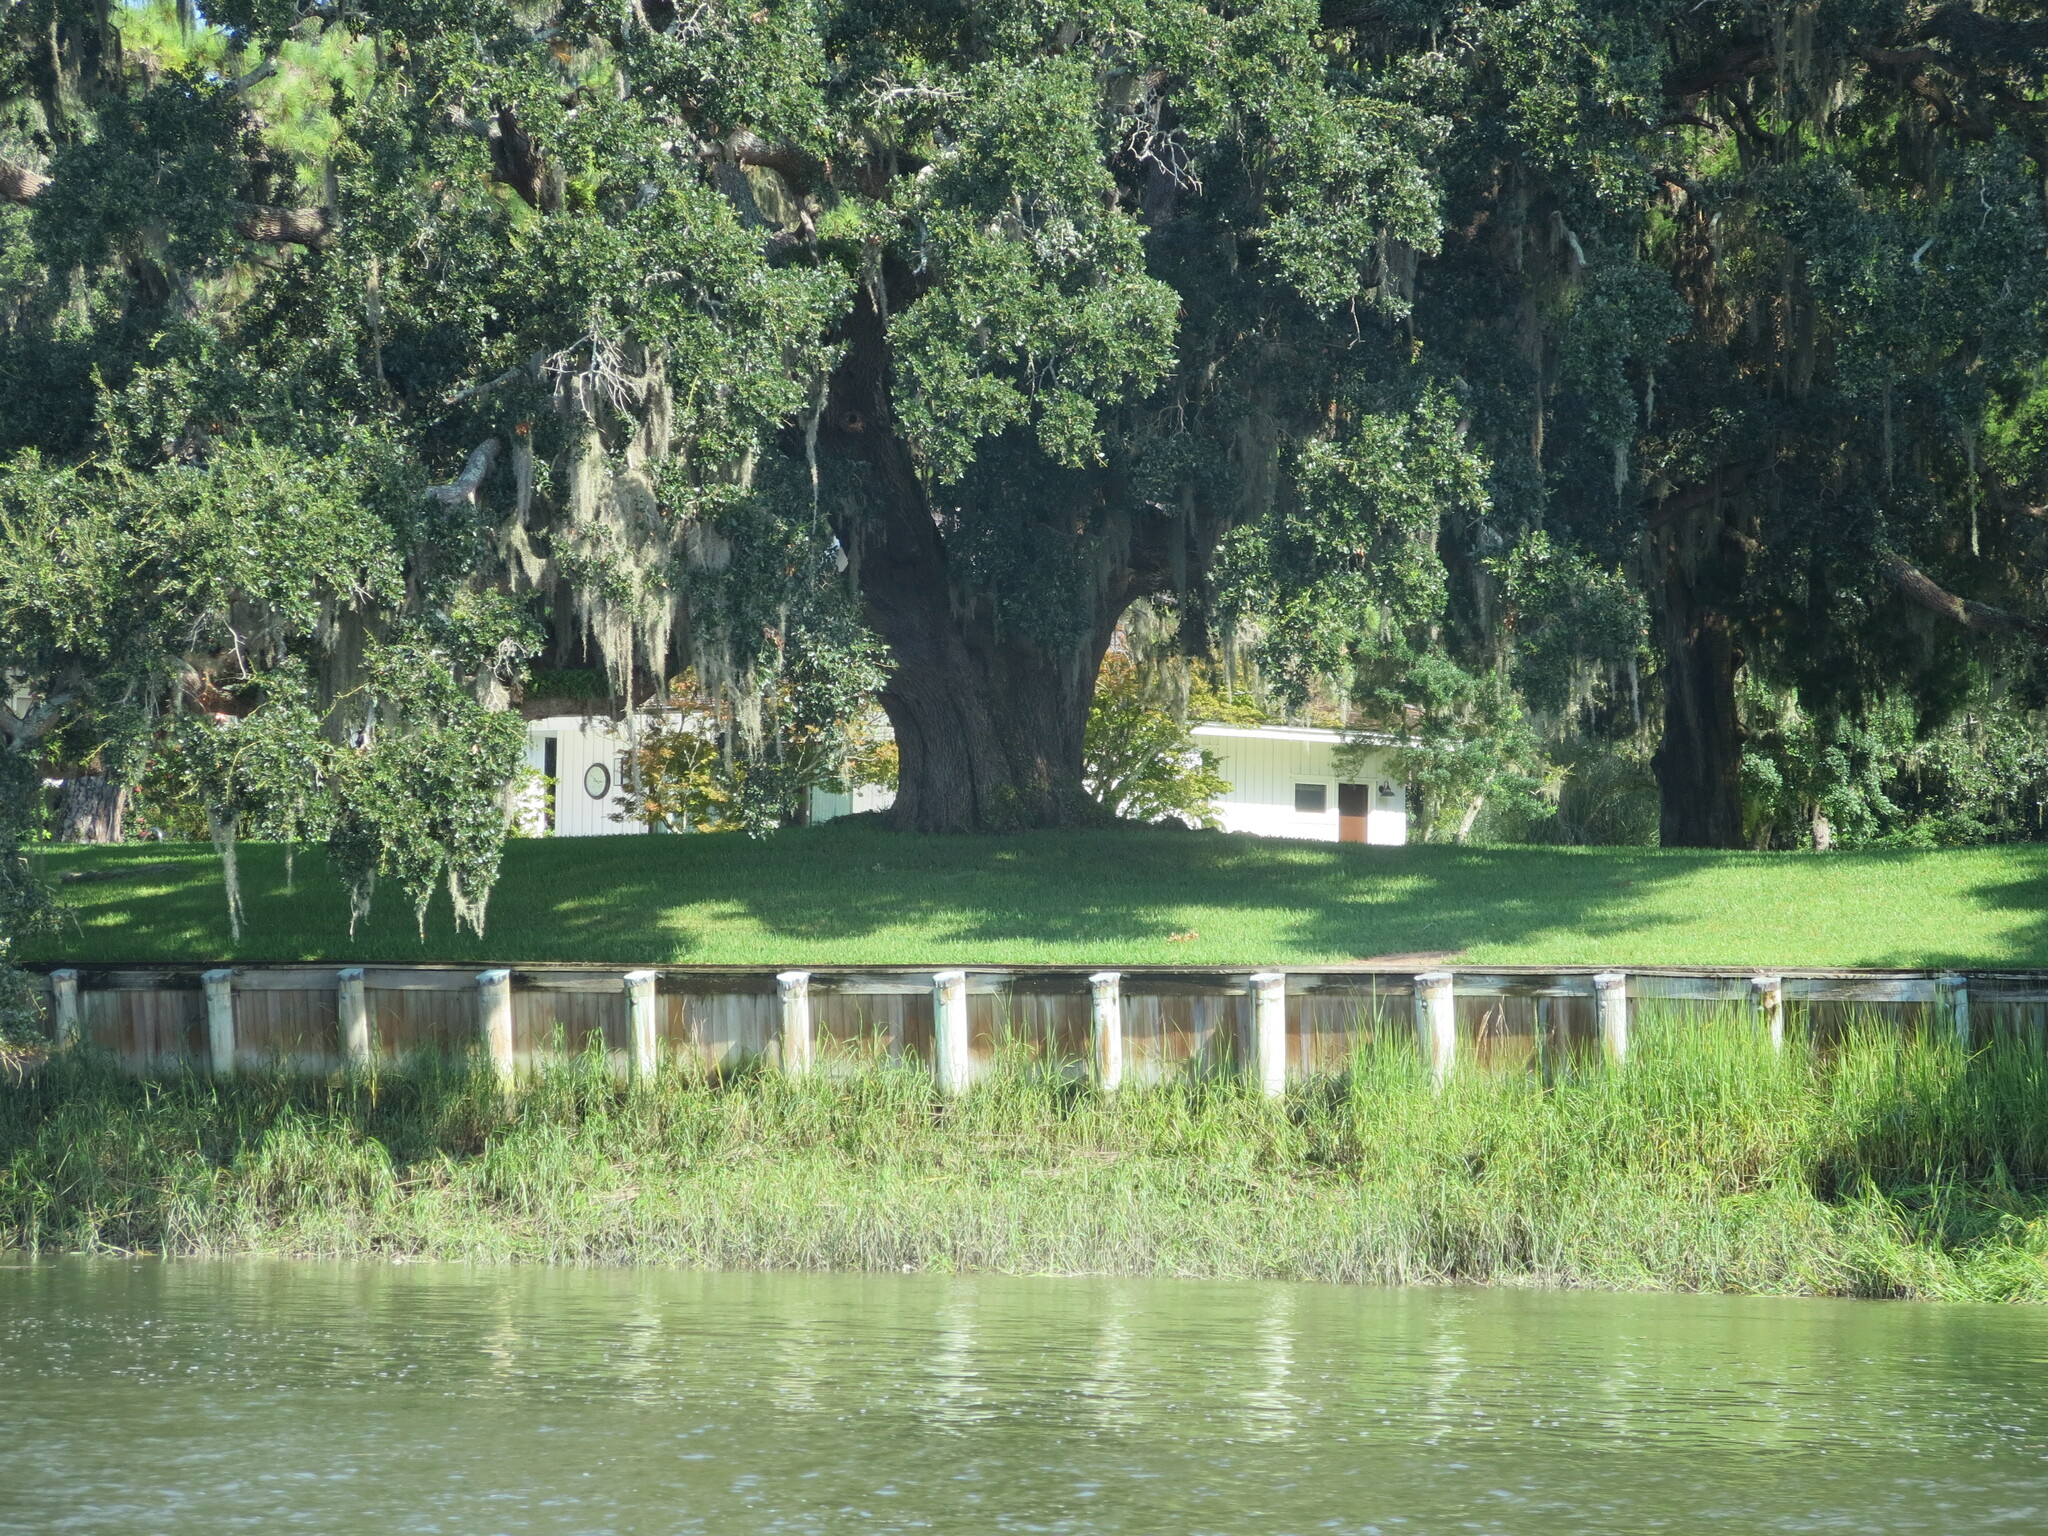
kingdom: Plantae
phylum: Tracheophyta
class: Magnoliopsida
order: Fagales
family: Fagaceae
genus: Quercus
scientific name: Quercus virginiana
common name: Southern live oak
